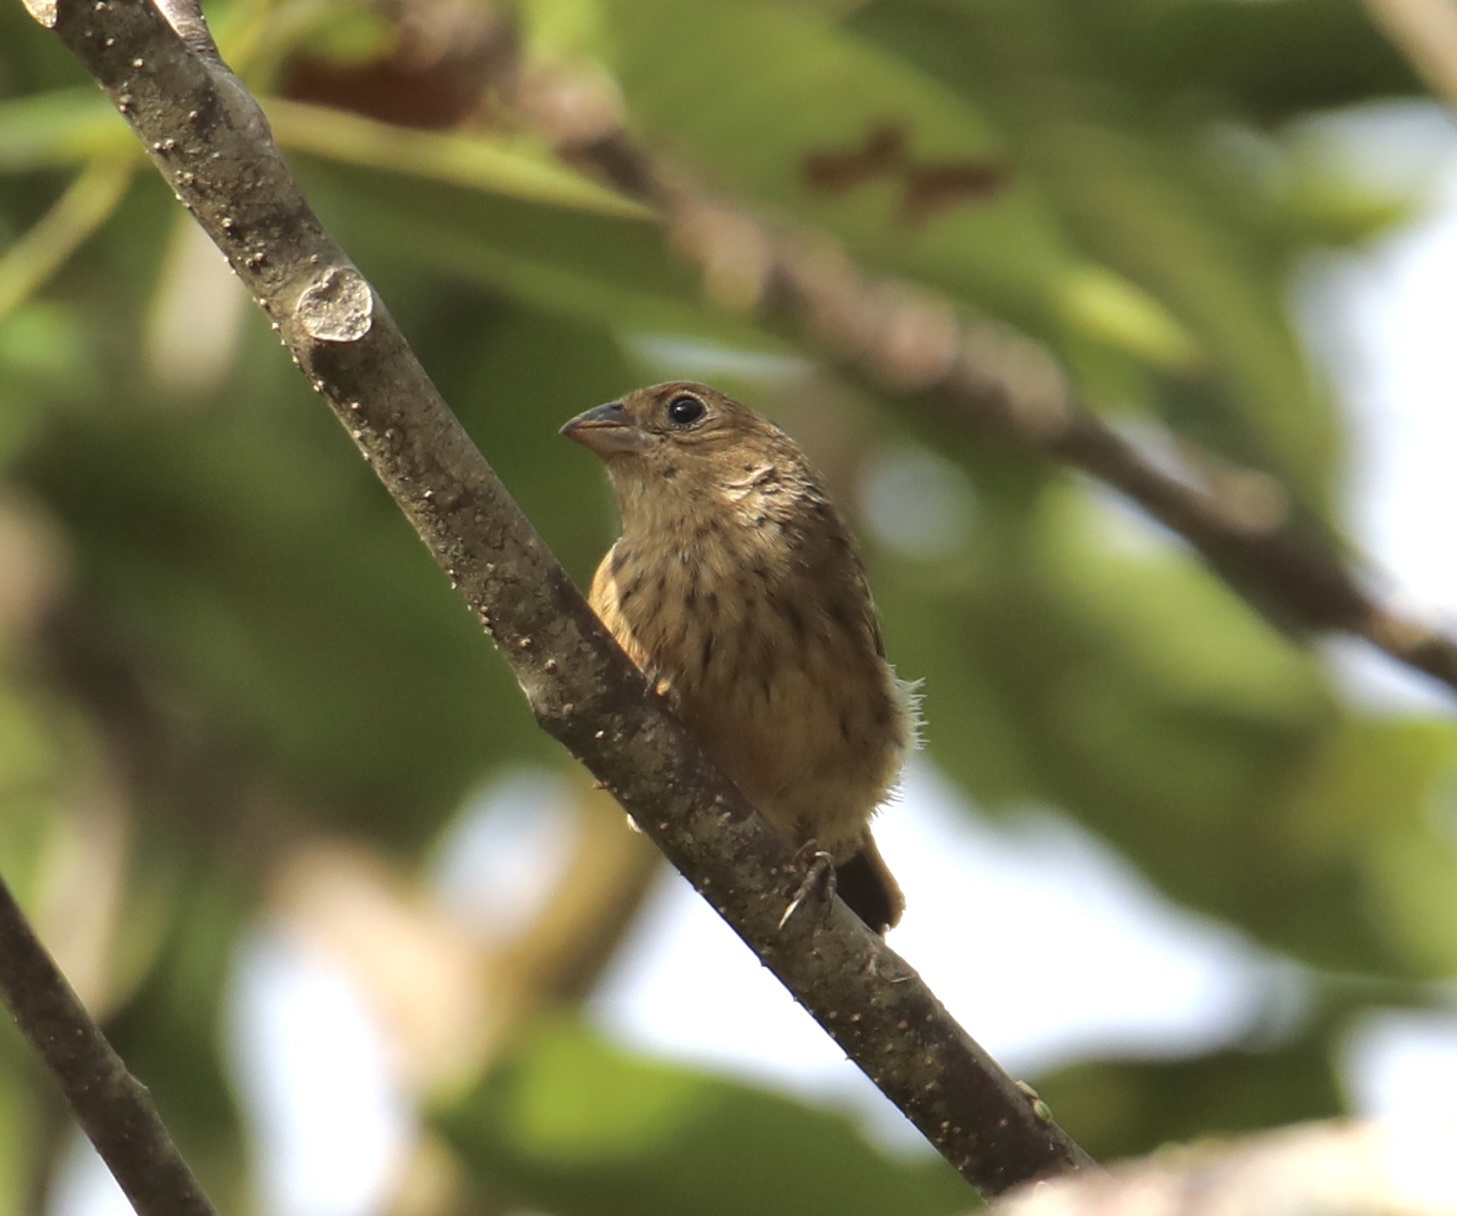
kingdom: Animalia
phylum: Chordata
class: Aves
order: Passeriformes
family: Thraupidae
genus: Volatinia
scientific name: Volatinia jacarina
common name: Blue-black grassquit
